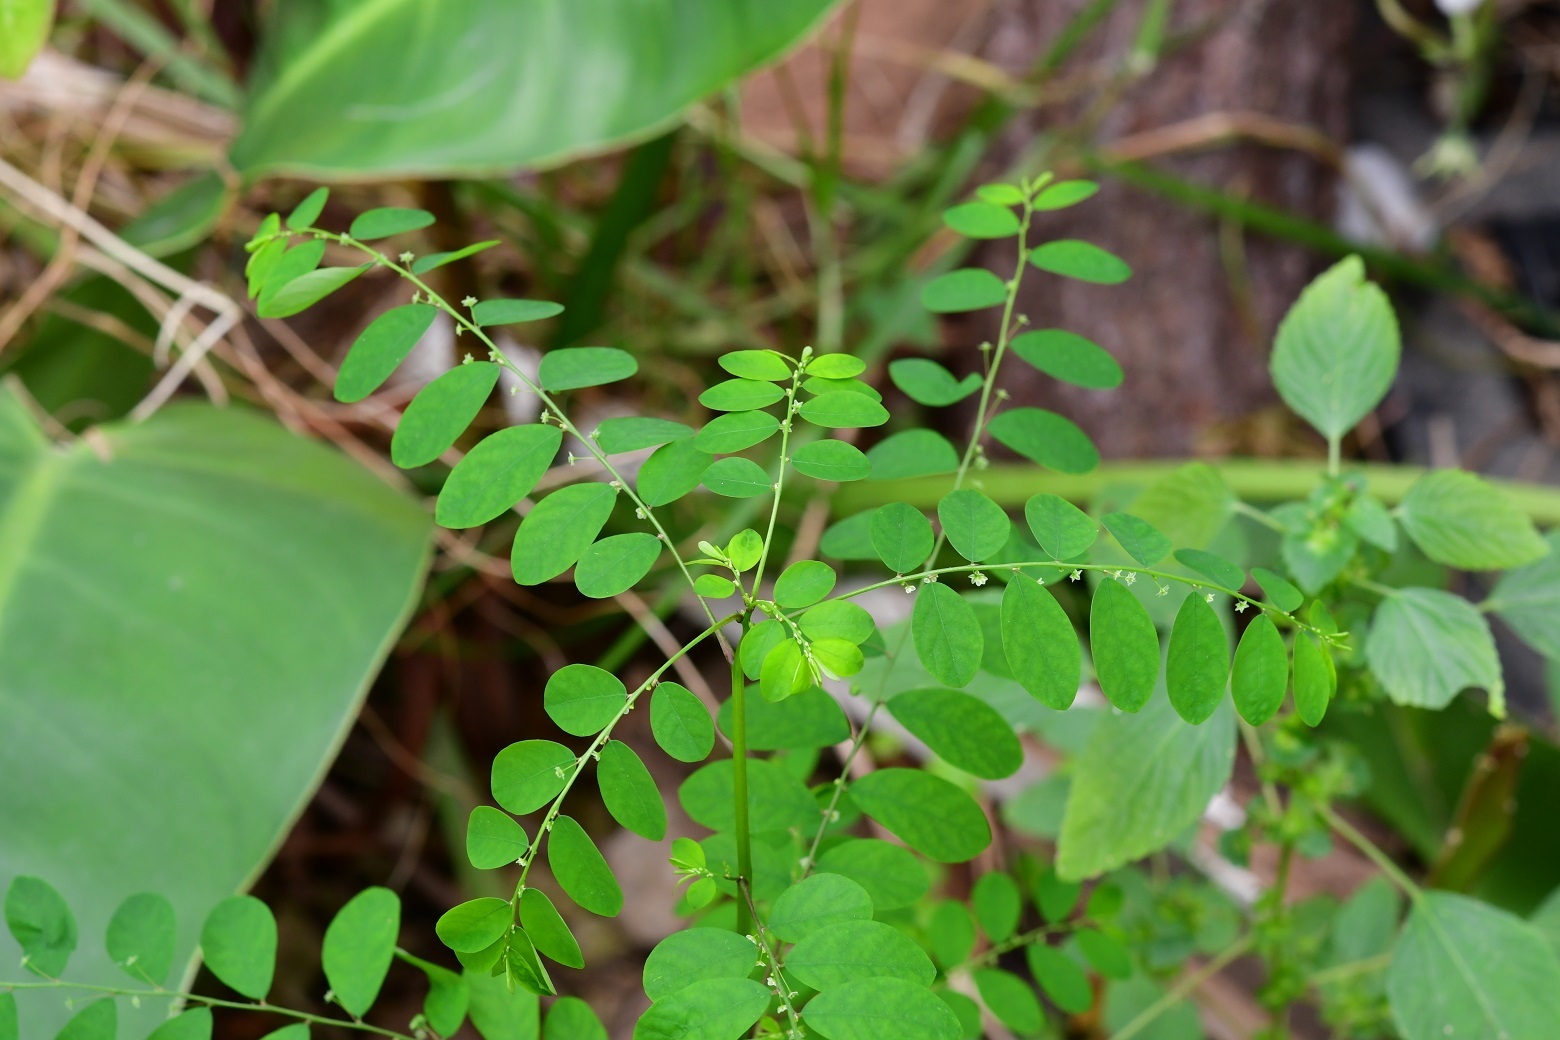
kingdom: Plantae
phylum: Tracheophyta
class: Magnoliopsida
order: Malpighiales
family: Phyllanthaceae
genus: Phyllanthus
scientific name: Phyllanthus tenellus
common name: Mascarene island leaf-flower
